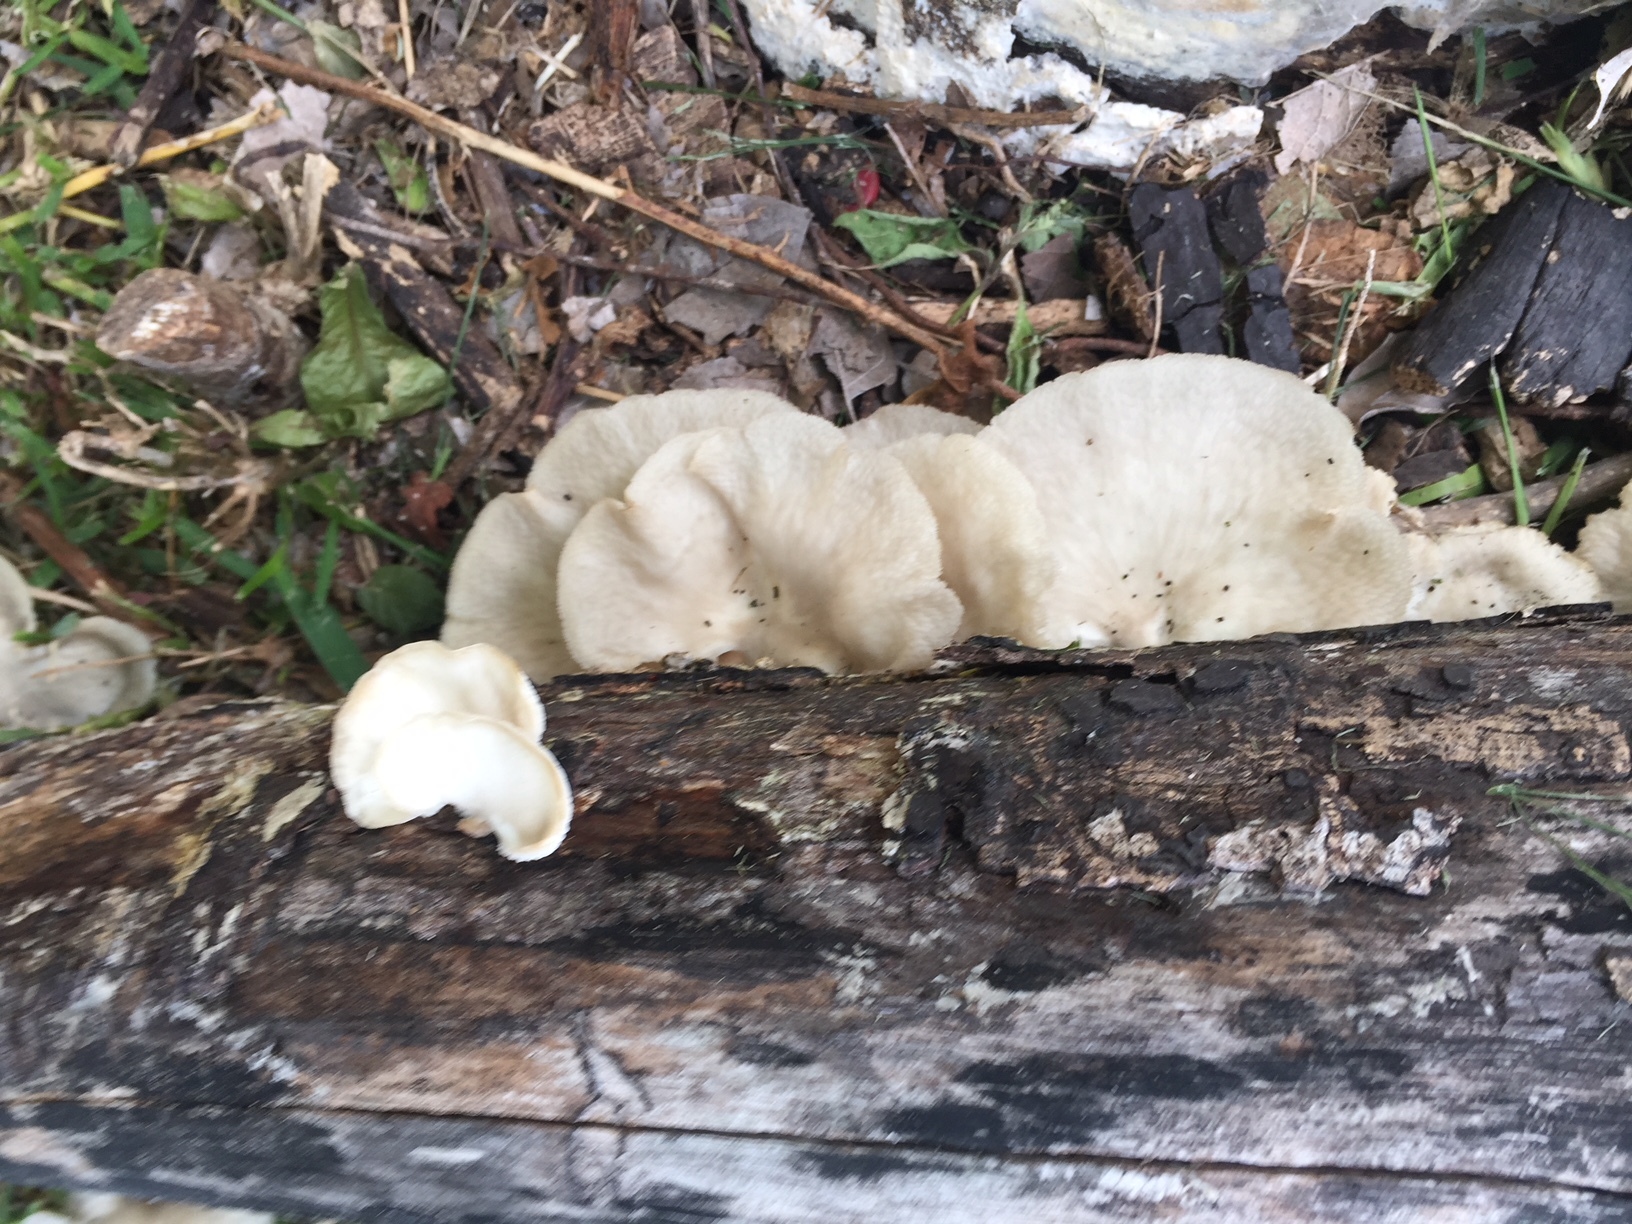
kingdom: Fungi
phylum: Basidiomycota
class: Agaricomycetes
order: Polyporales
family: Polyporaceae
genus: Favolus
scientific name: Favolus tenuiculus
